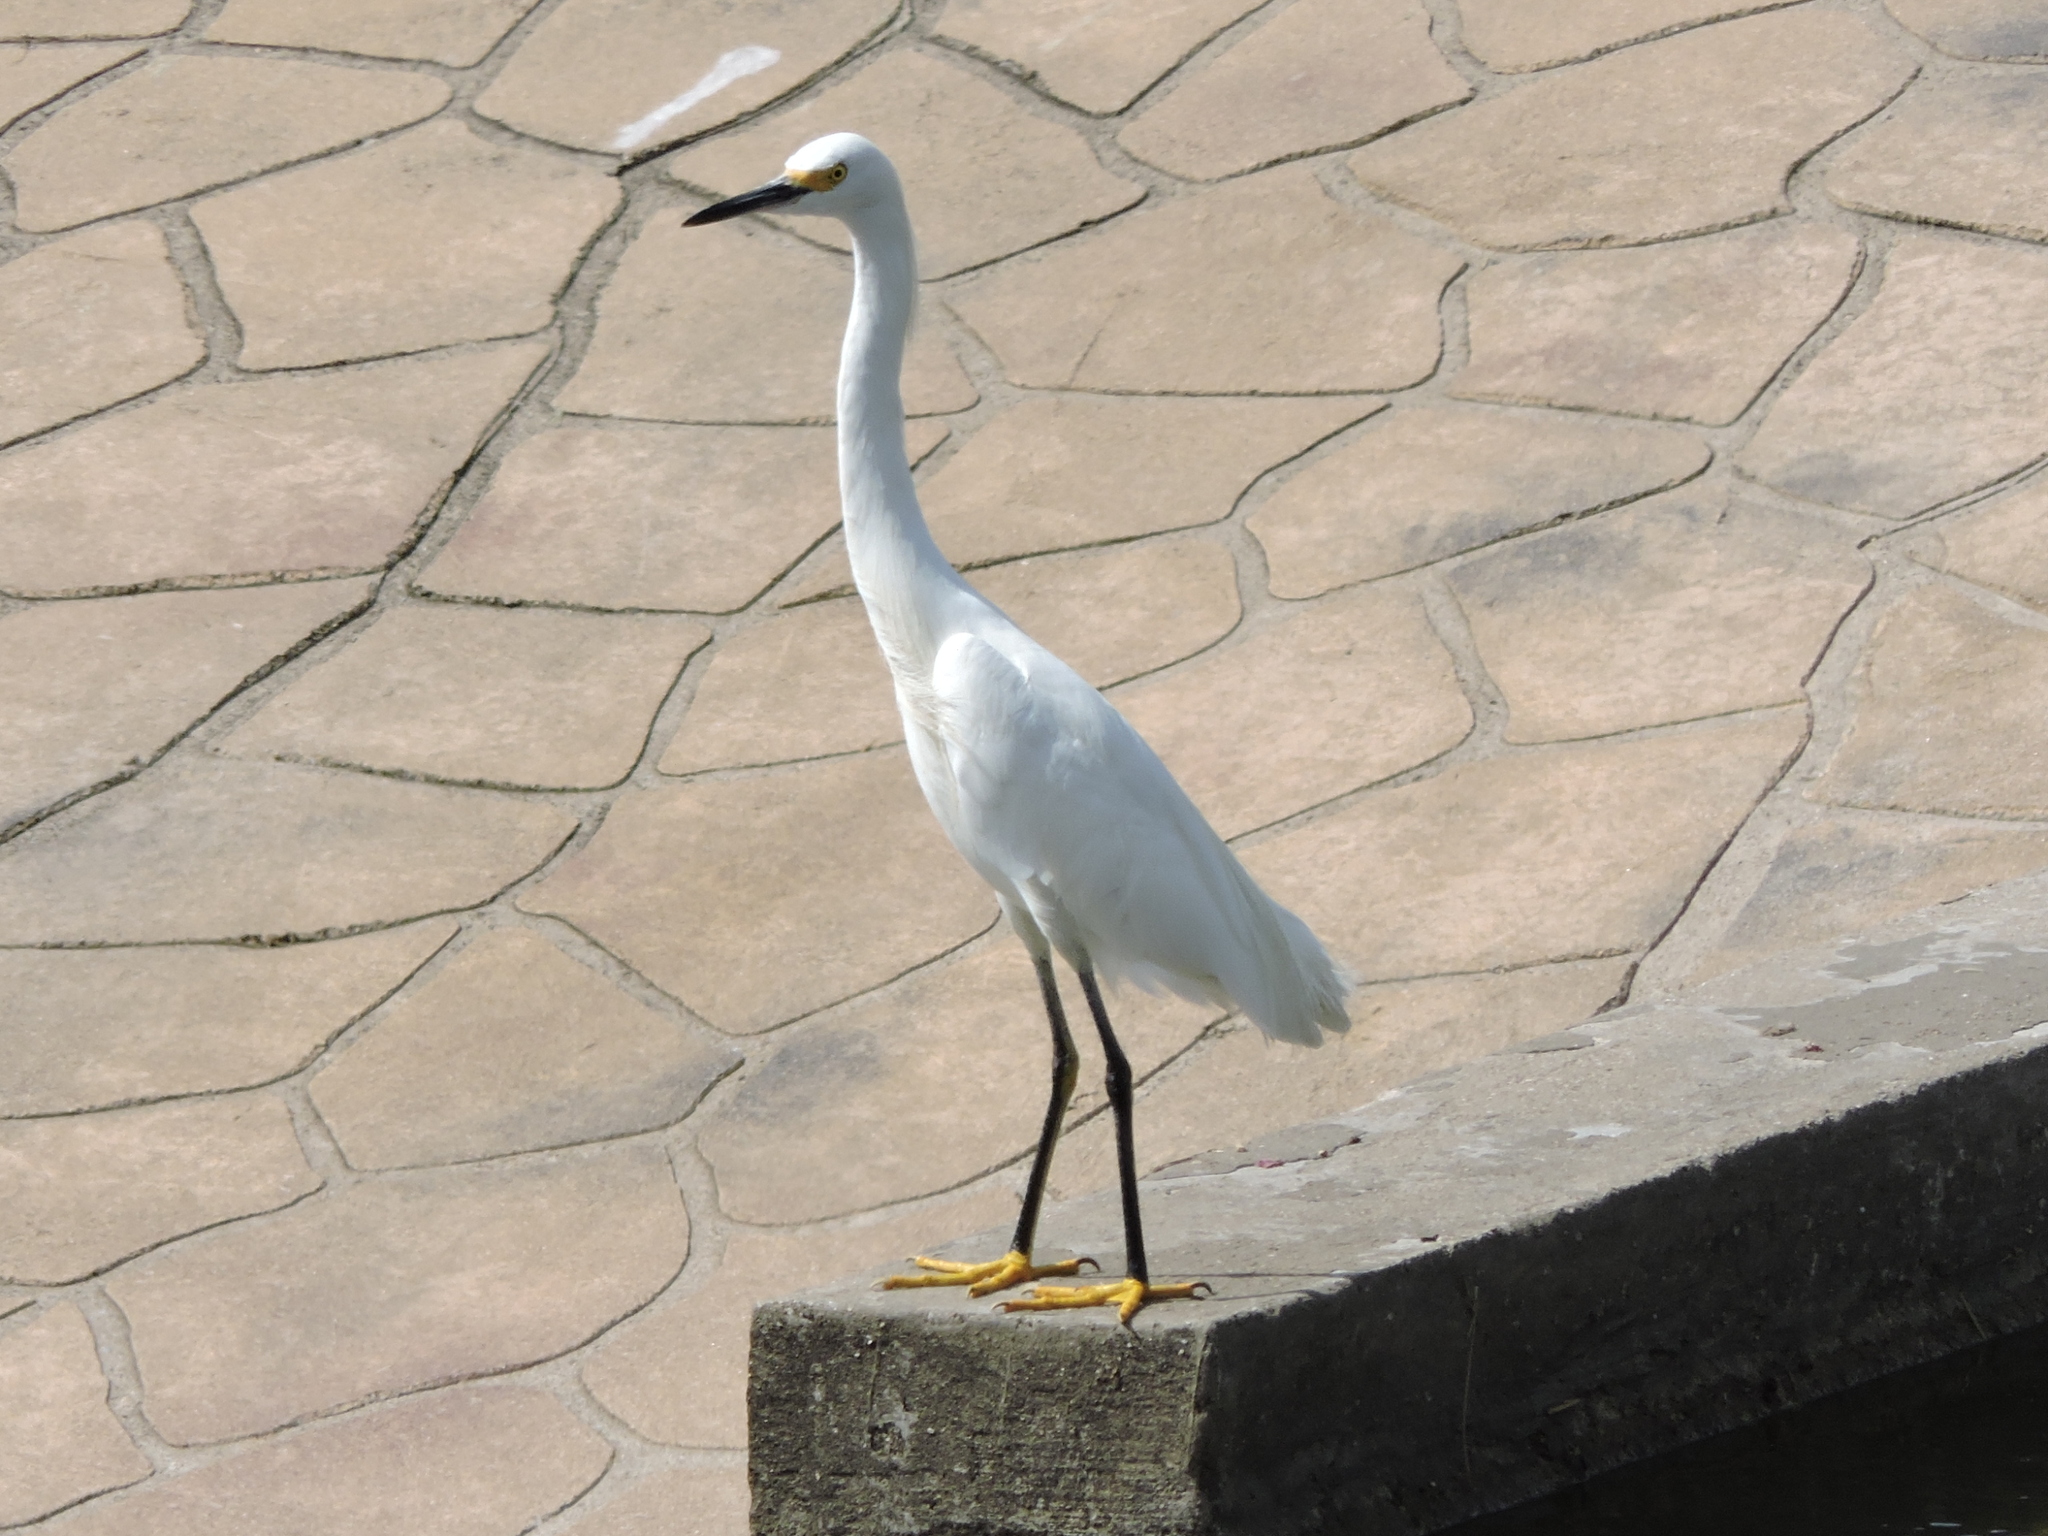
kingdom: Animalia
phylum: Chordata
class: Aves
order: Pelecaniformes
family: Ardeidae
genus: Egretta
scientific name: Egretta thula
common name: Snowy egret
